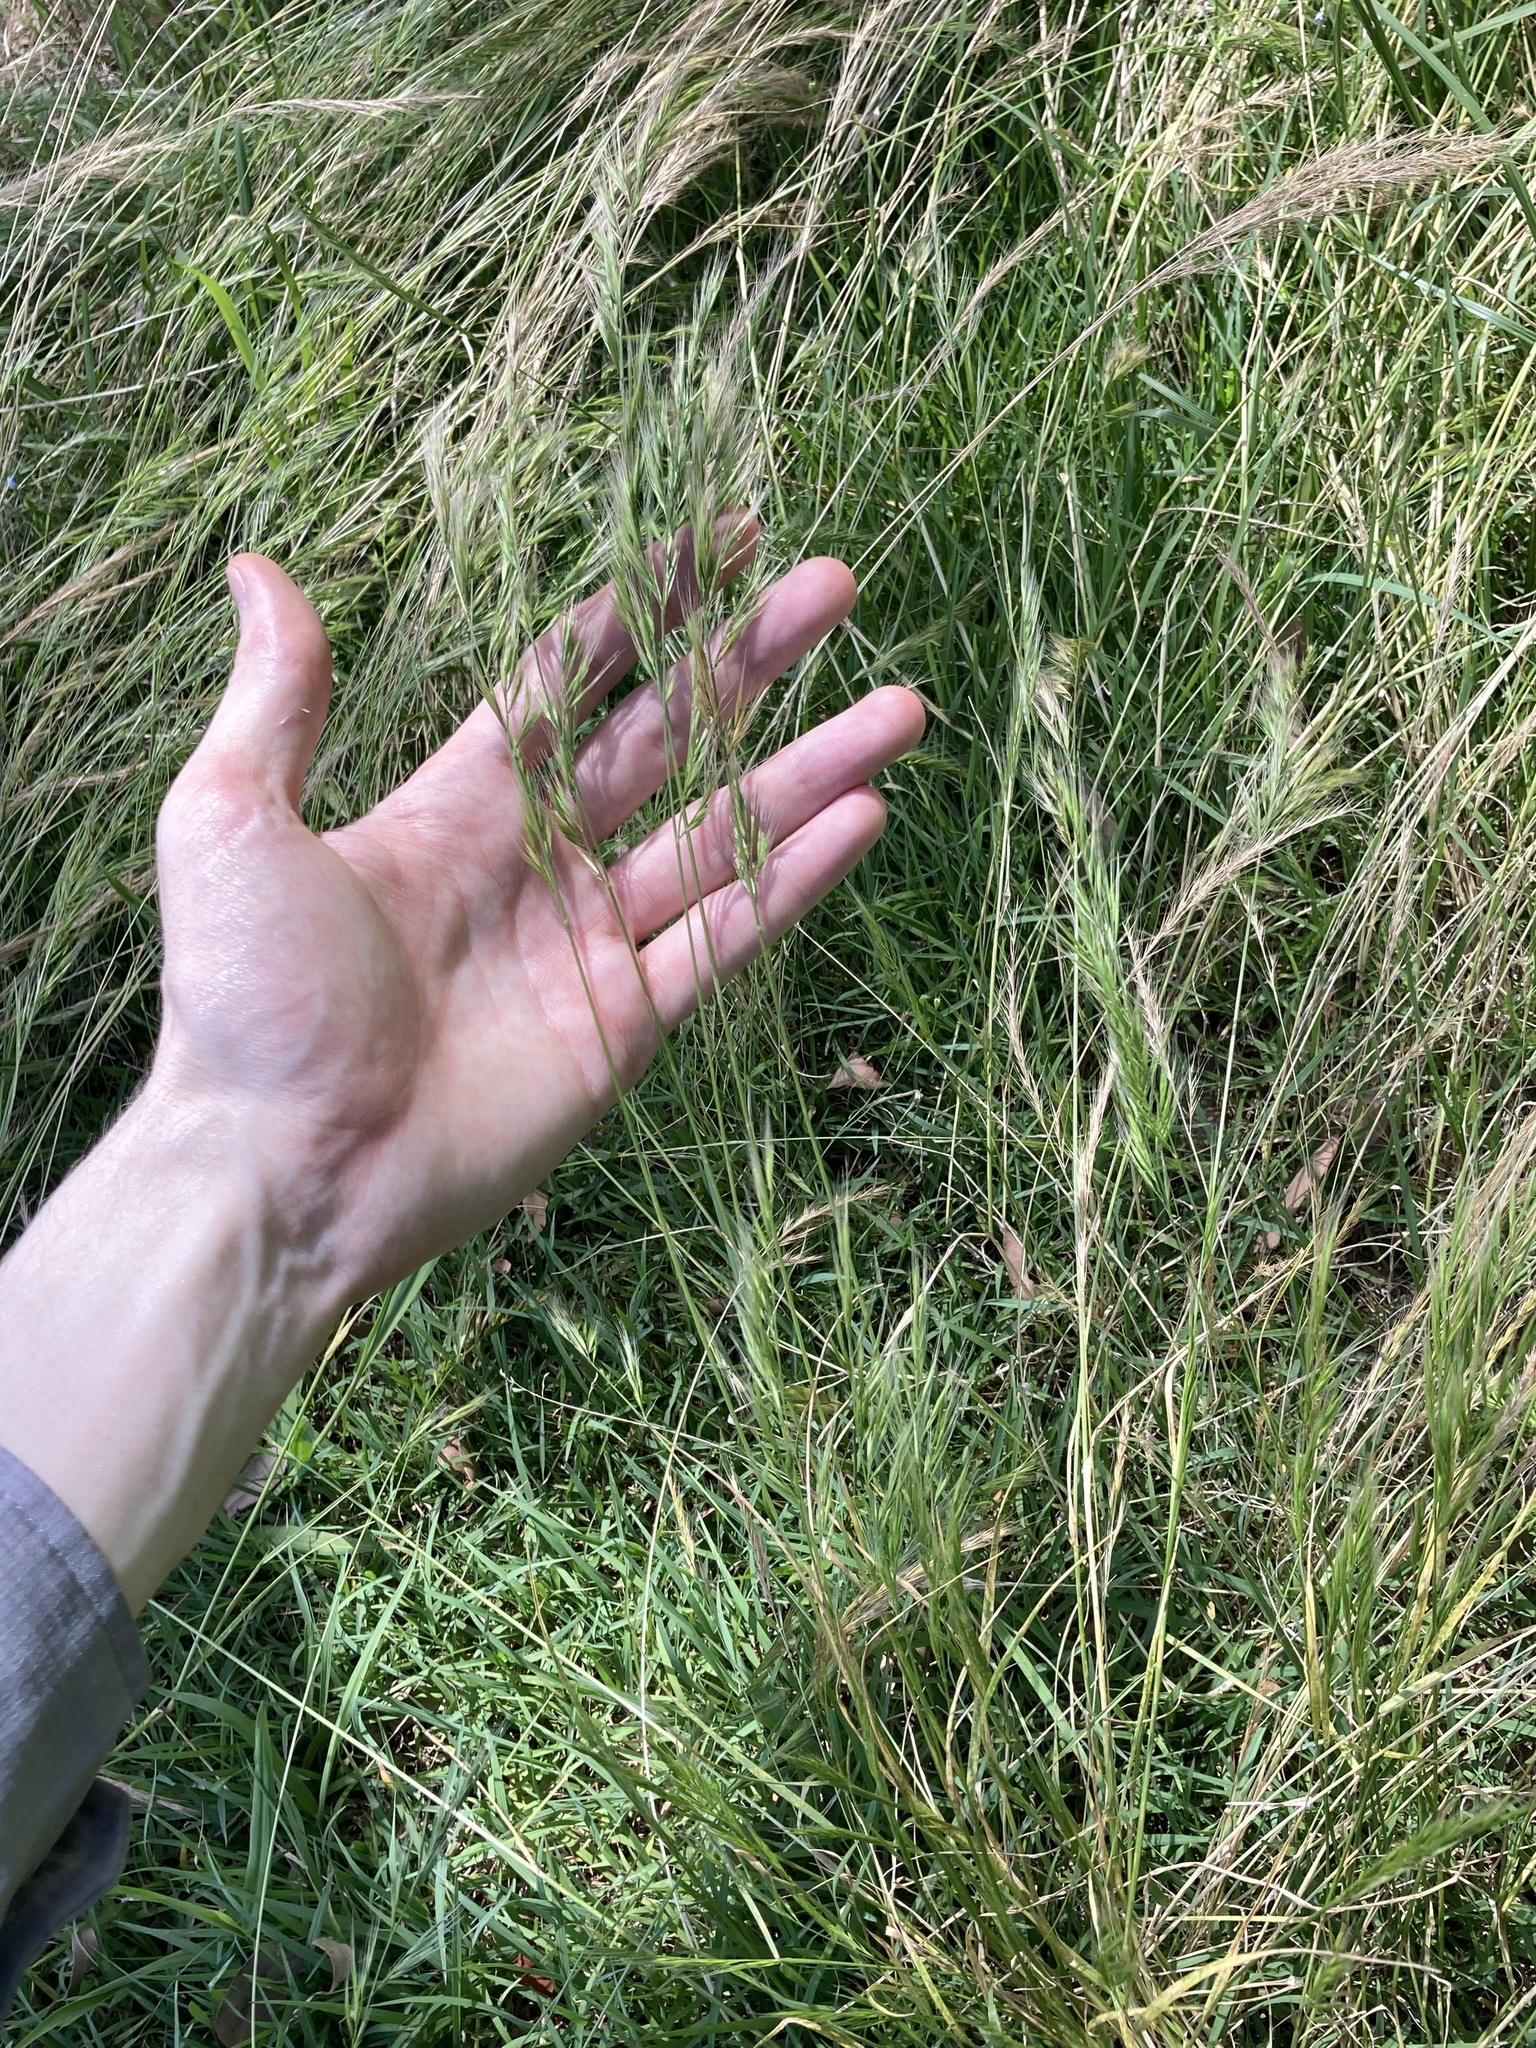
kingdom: Plantae
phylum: Tracheophyta
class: Liliopsida
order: Poales
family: Poaceae
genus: Festuca
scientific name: Festuca bromoides
